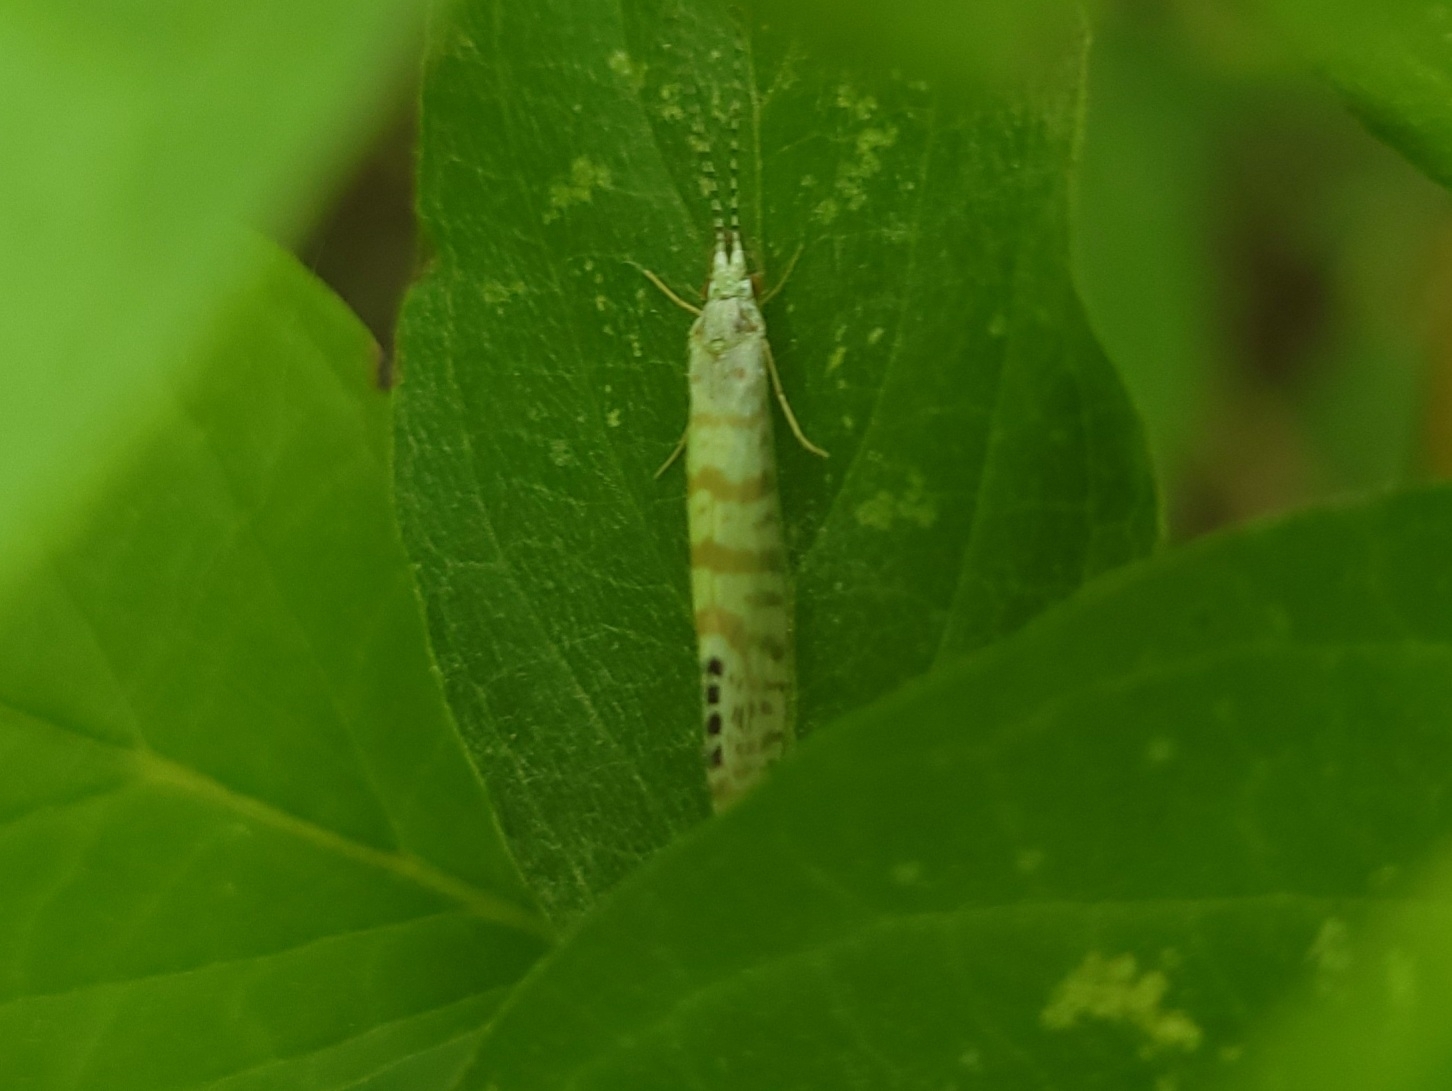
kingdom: Animalia
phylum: Arthropoda
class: Insecta
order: Trichoptera
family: Leptoceridae
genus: Nectopsyche
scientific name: Nectopsyche exquisita
